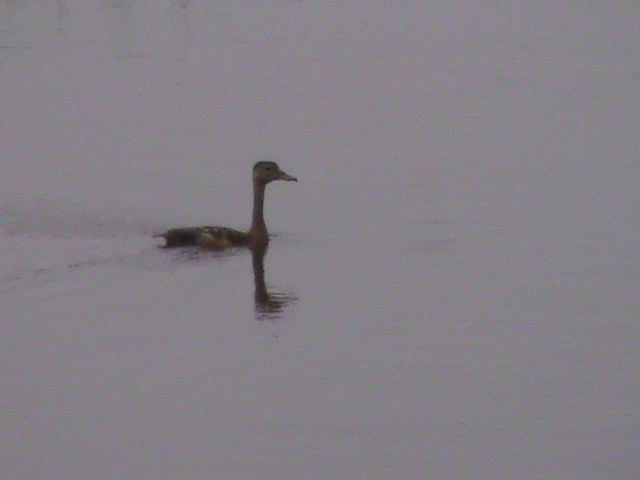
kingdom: Animalia
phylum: Chordata
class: Aves
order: Anseriformes
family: Anatidae
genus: Dendrocygna
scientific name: Dendrocygna javanica
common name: Lesser whistling-duck
